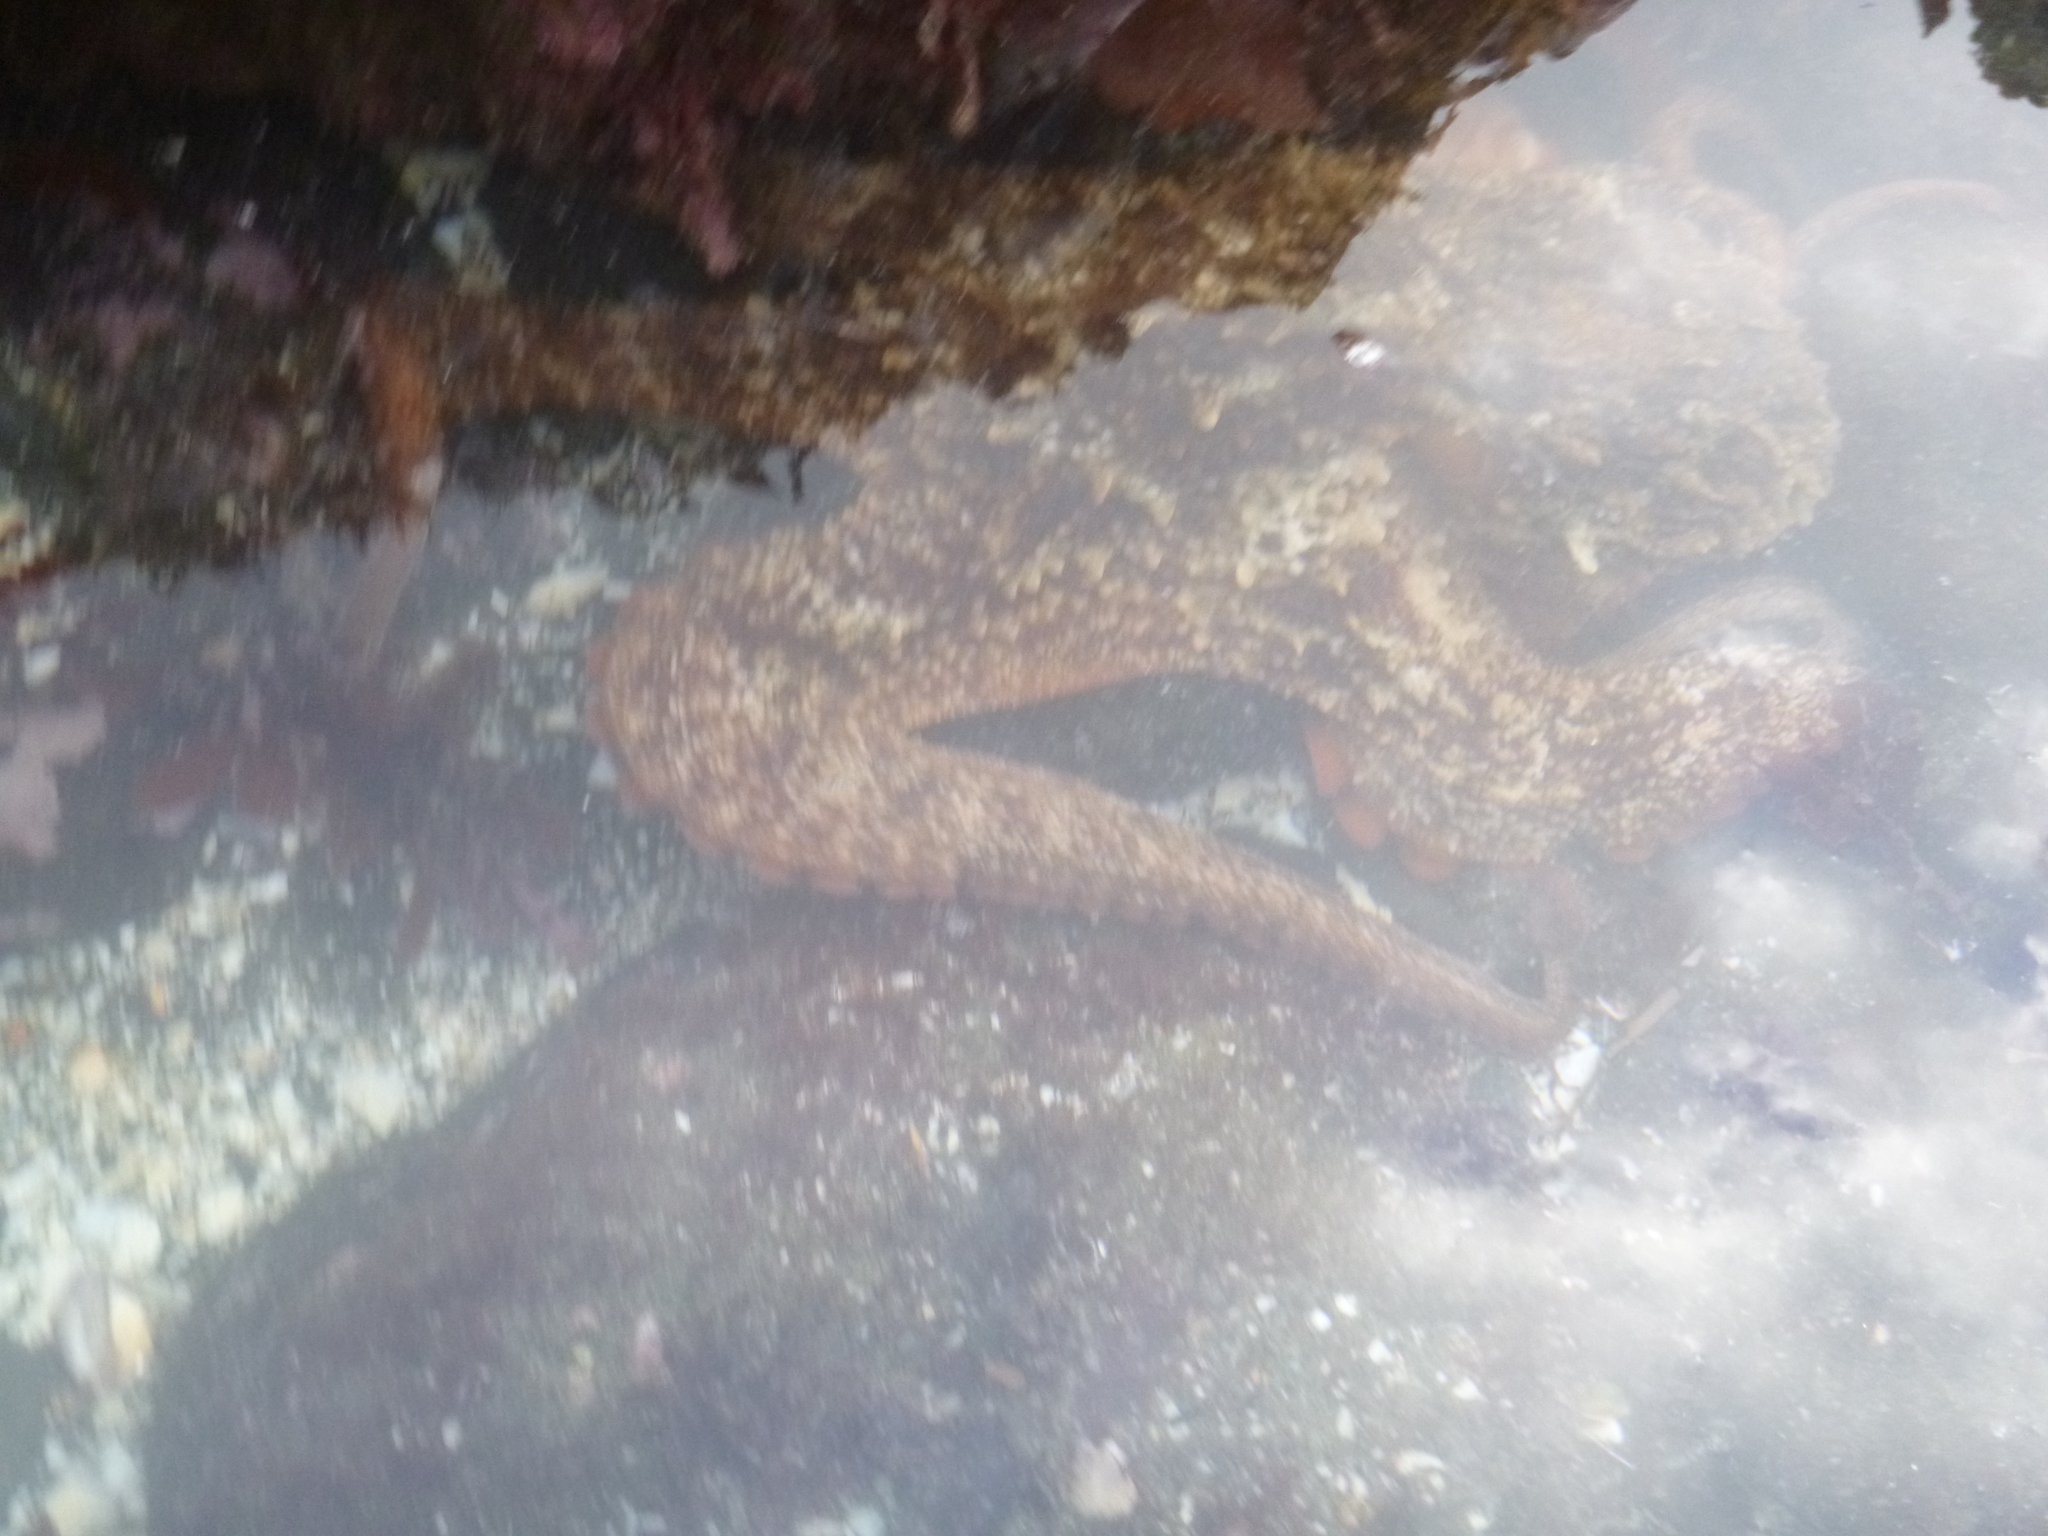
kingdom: Animalia
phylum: Mollusca
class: Cephalopoda
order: Octopoda
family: Octopodidae
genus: Octopus
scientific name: Octopus tetricus
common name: Sydney octopus
